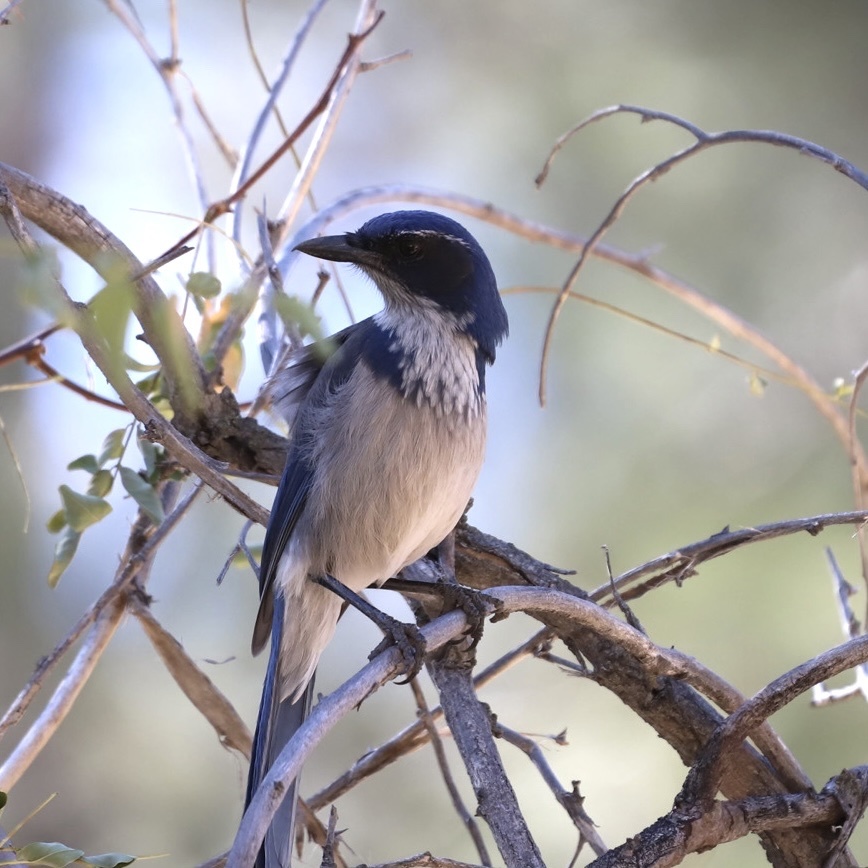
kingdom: Animalia
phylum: Chordata
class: Aves
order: Passeriformes
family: Corvidae
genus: Aphelocoma
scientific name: Aphelocoma californica
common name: California scrub-jay
